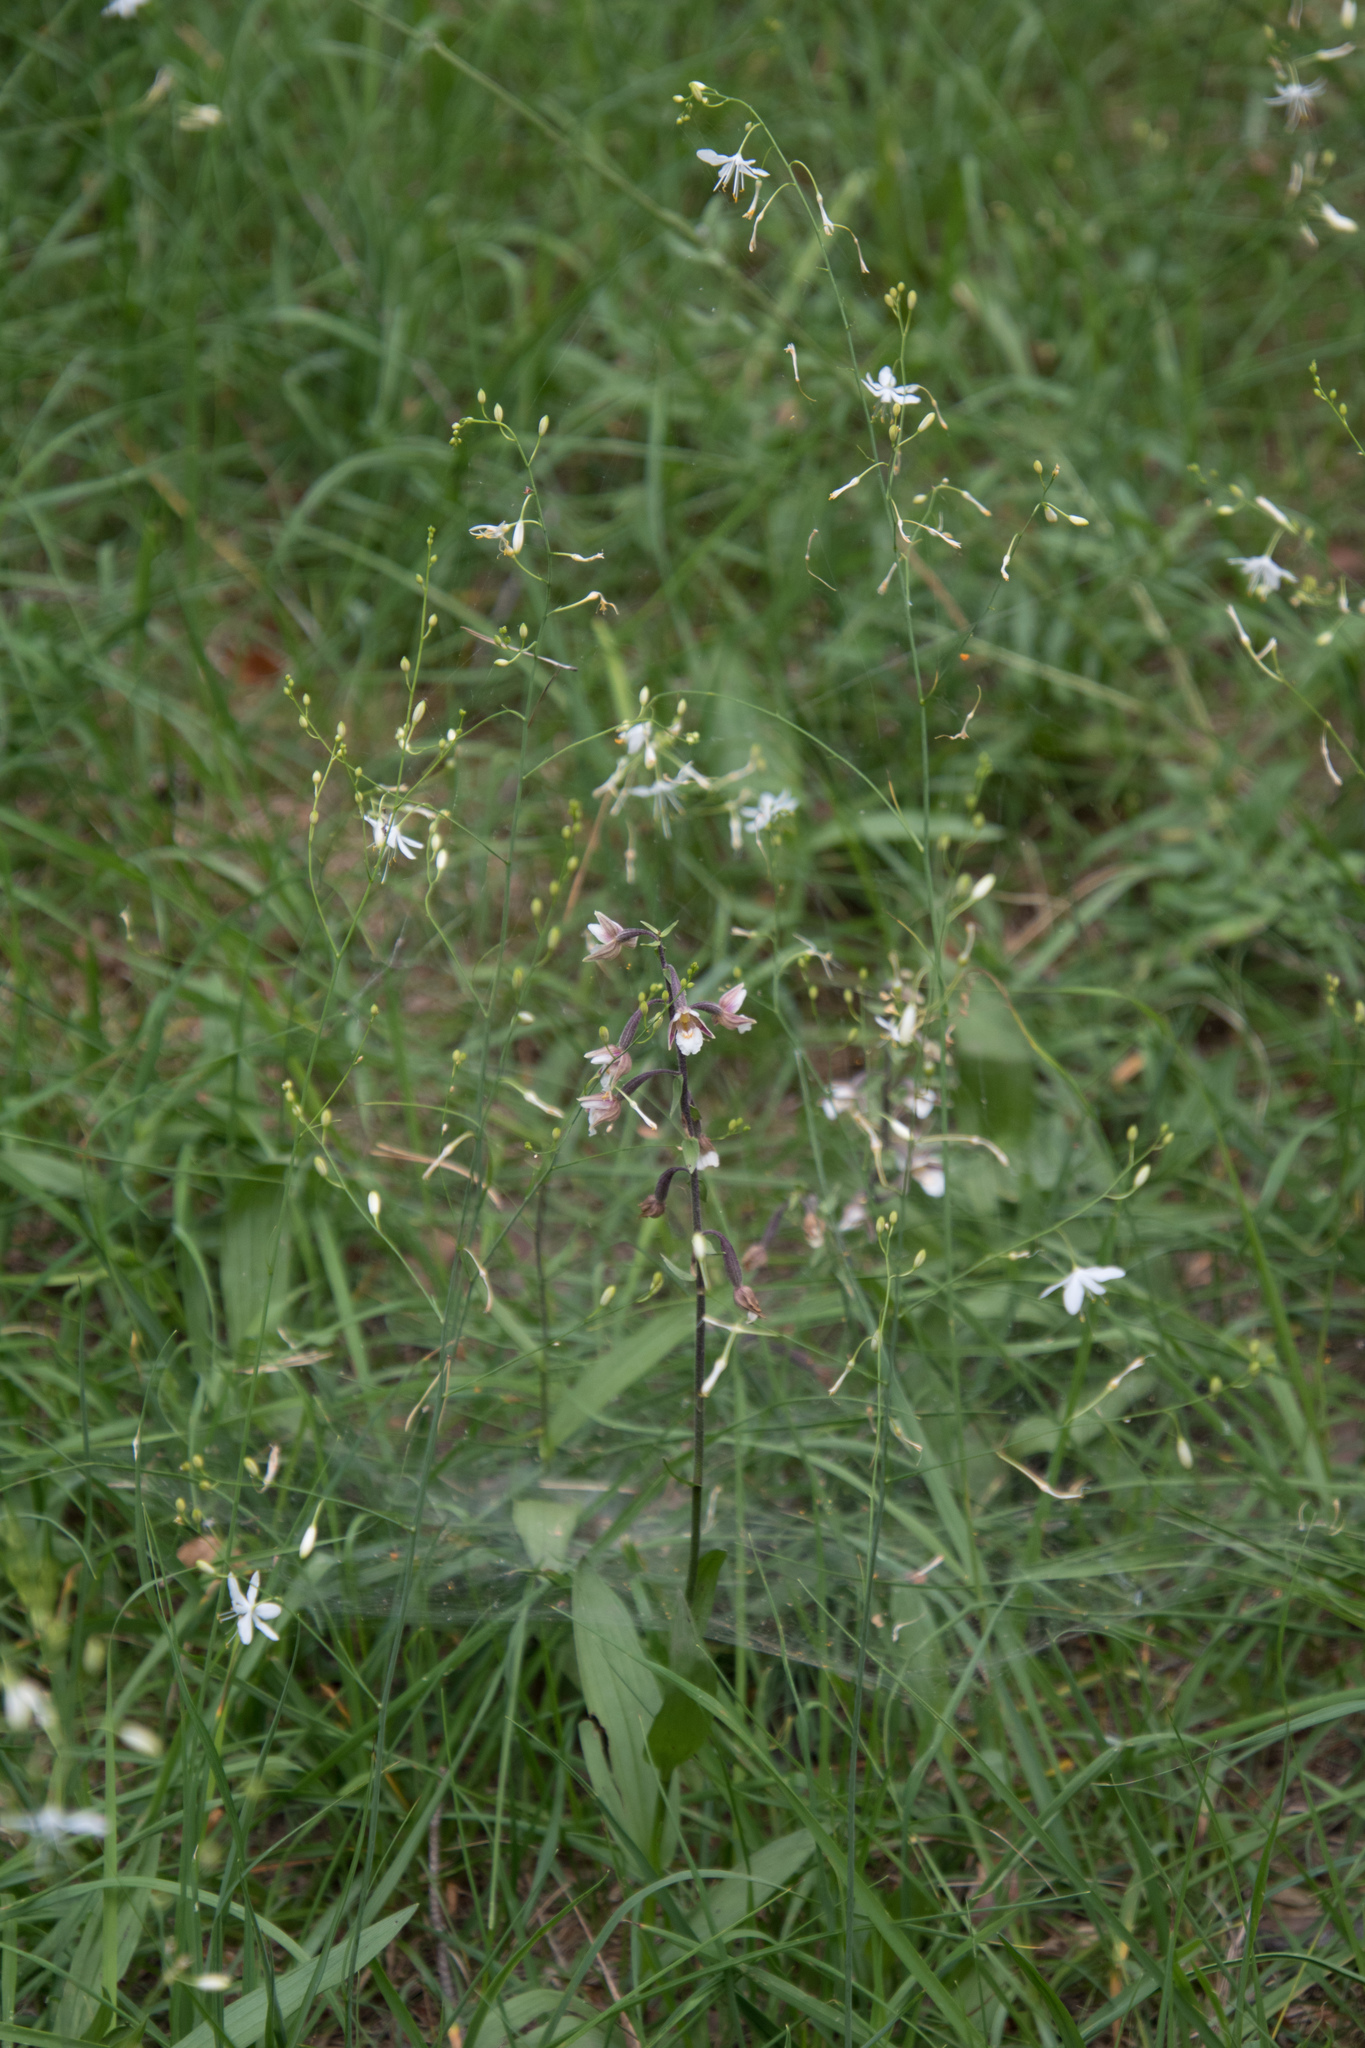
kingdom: Plantae
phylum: Tracheophyta
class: Liliopsida
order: Asparagales
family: Orchidaceae
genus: Epipactis
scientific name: Epipactis palustris
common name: Marsh helleborine
